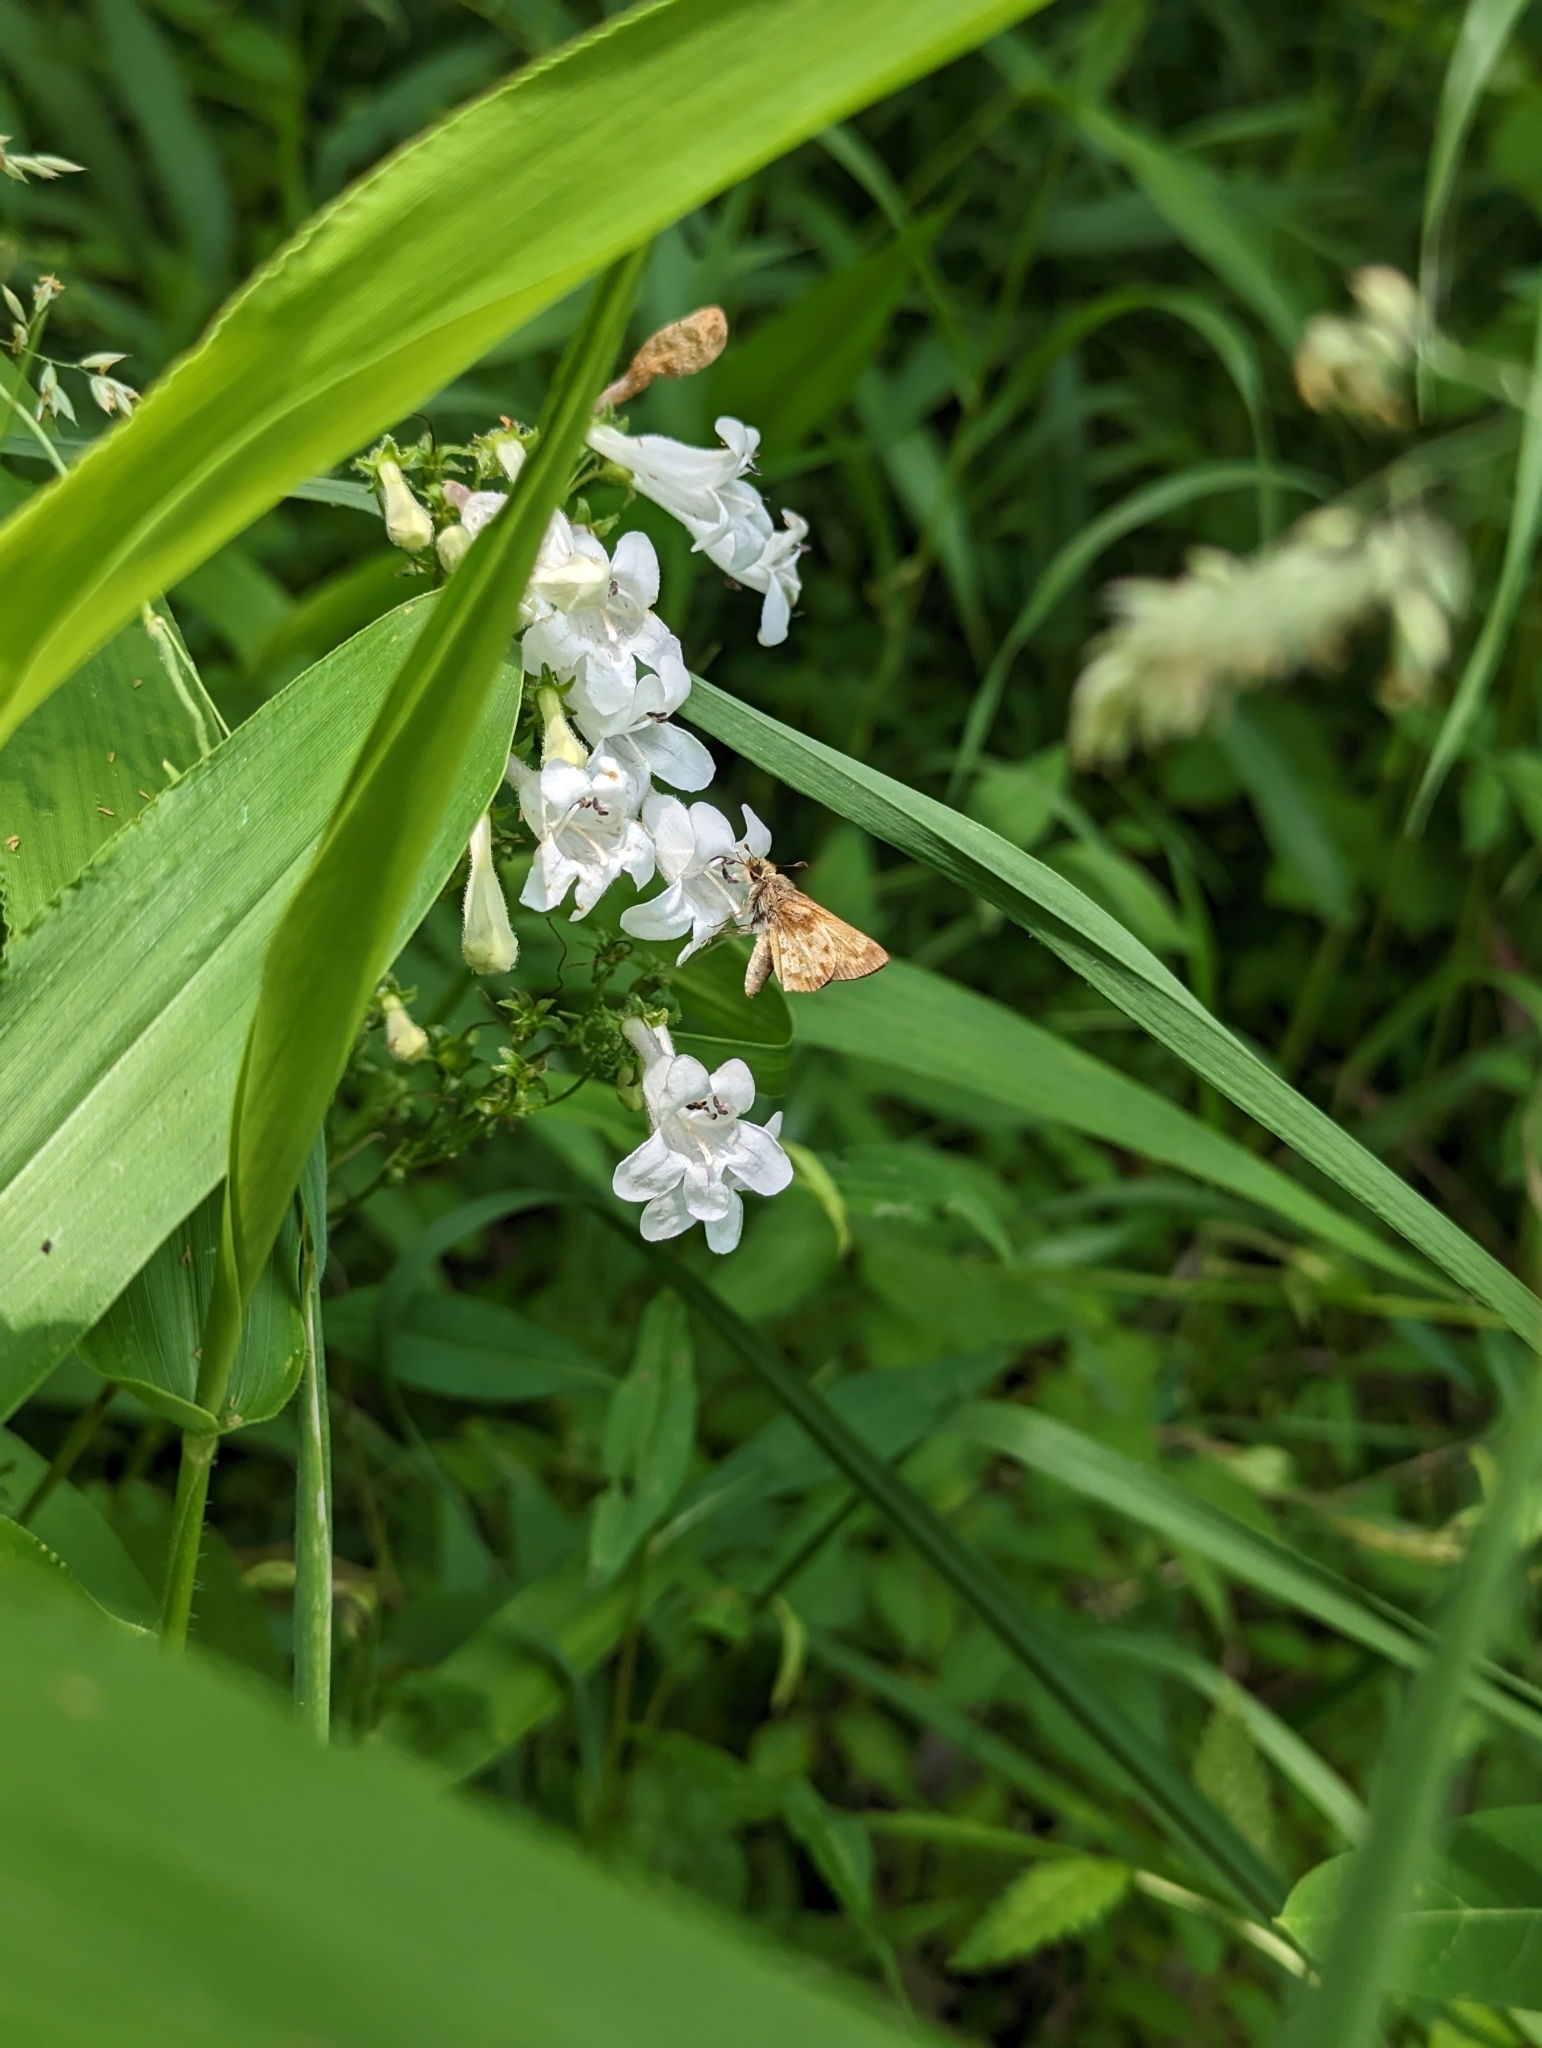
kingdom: Animalia
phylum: Arthropoda
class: Insecta
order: Lepidoptera
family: Hesperiidae
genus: Lon
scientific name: Lon zabulon
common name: Zabulon skipper
